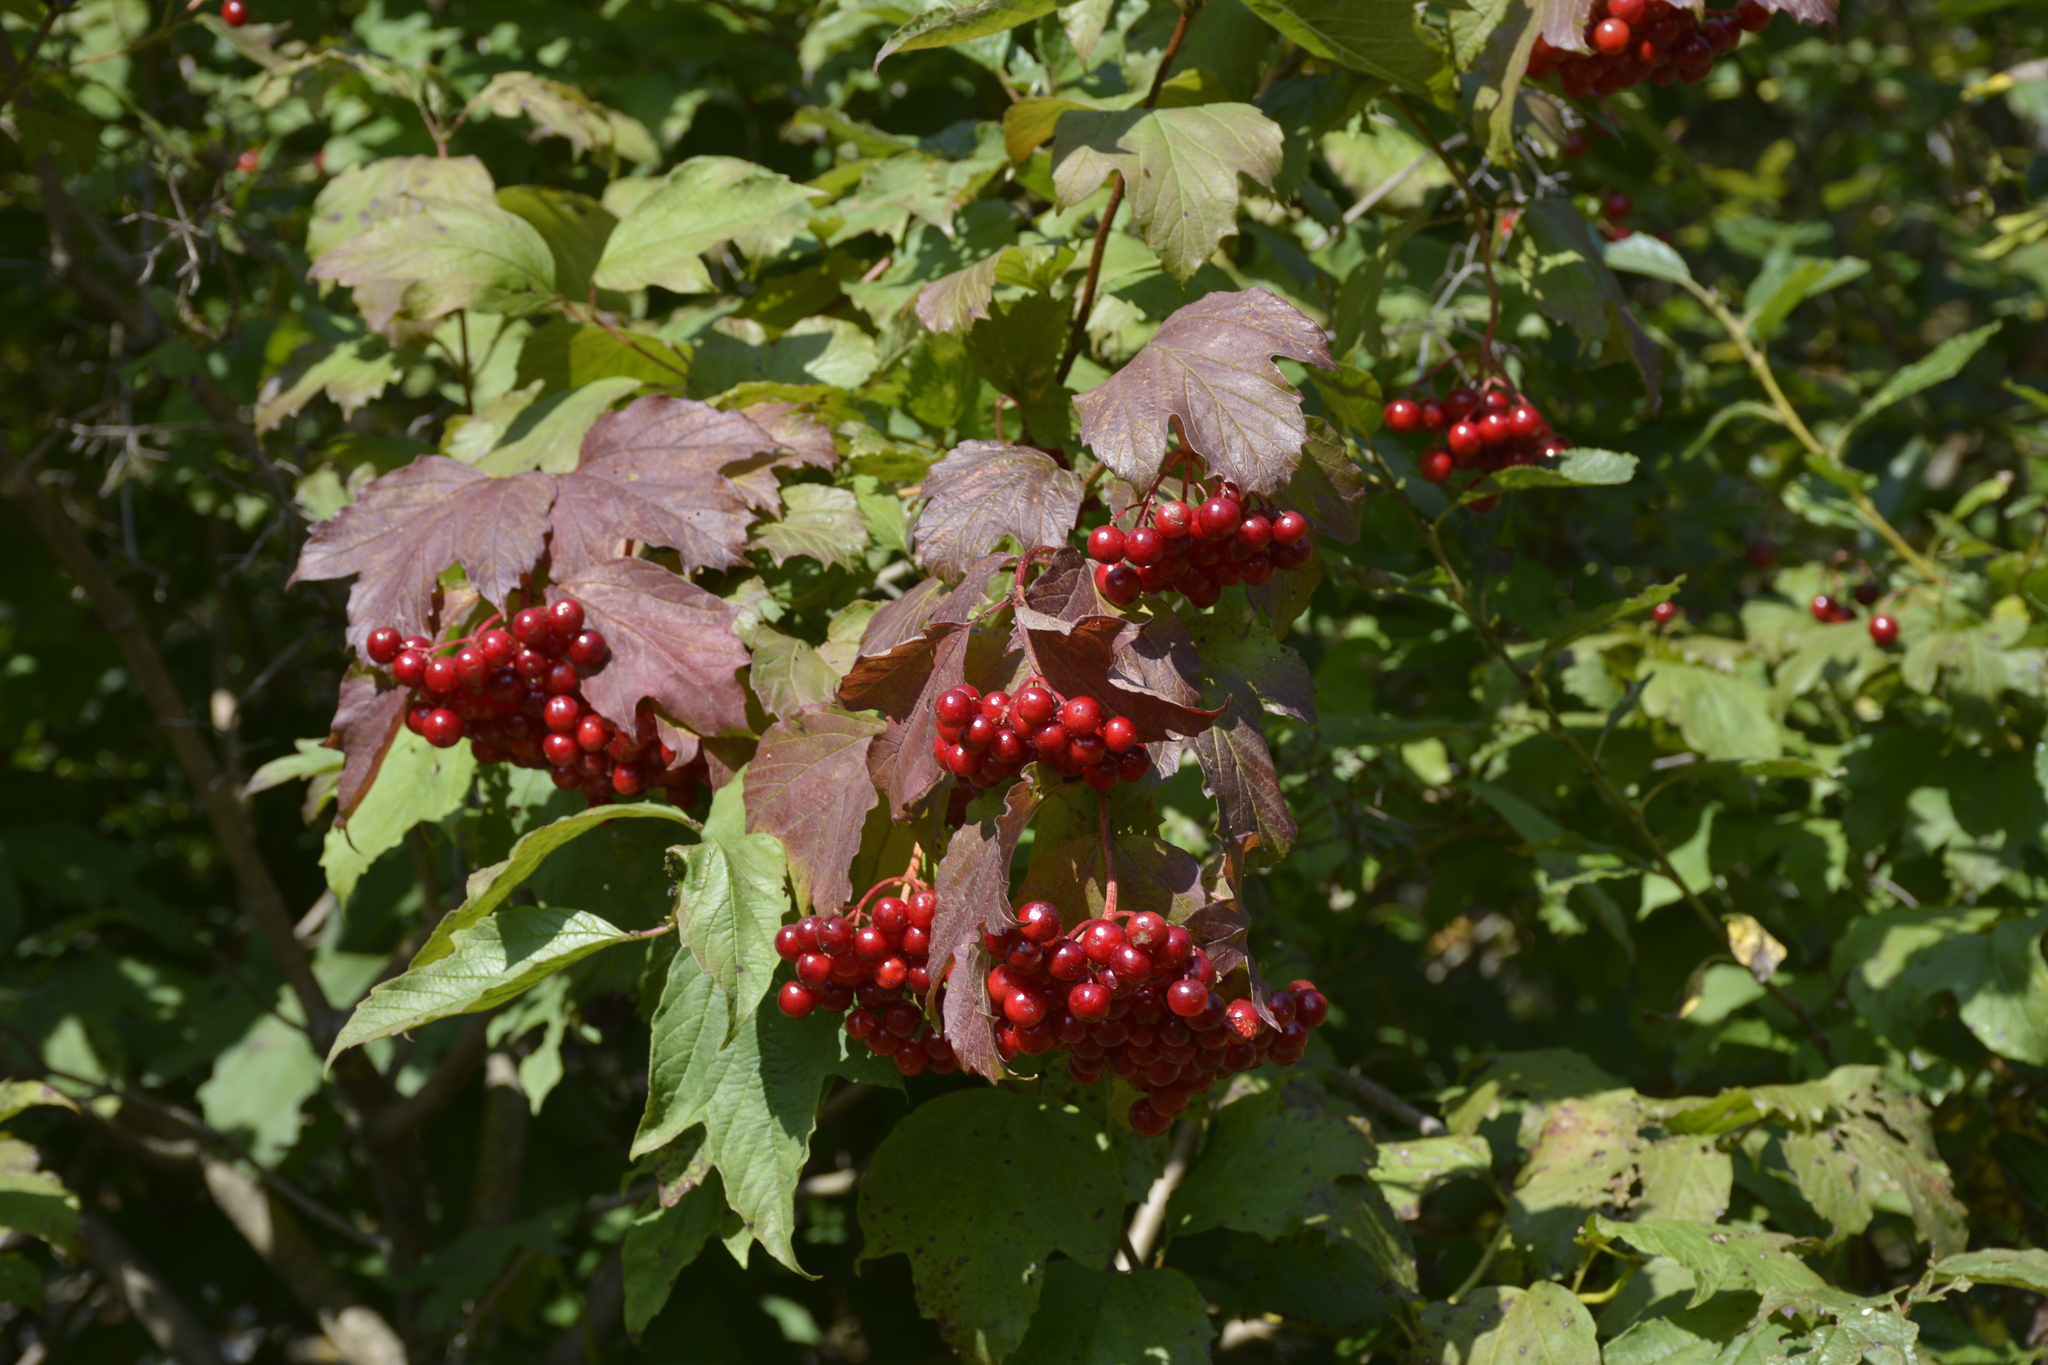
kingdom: Plantae
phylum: Tracheophyta
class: Magnoliopsida
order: Dipsacales
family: Viburnaceae
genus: Viburnum
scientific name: Viburnum opulus
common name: Guelder-rose
